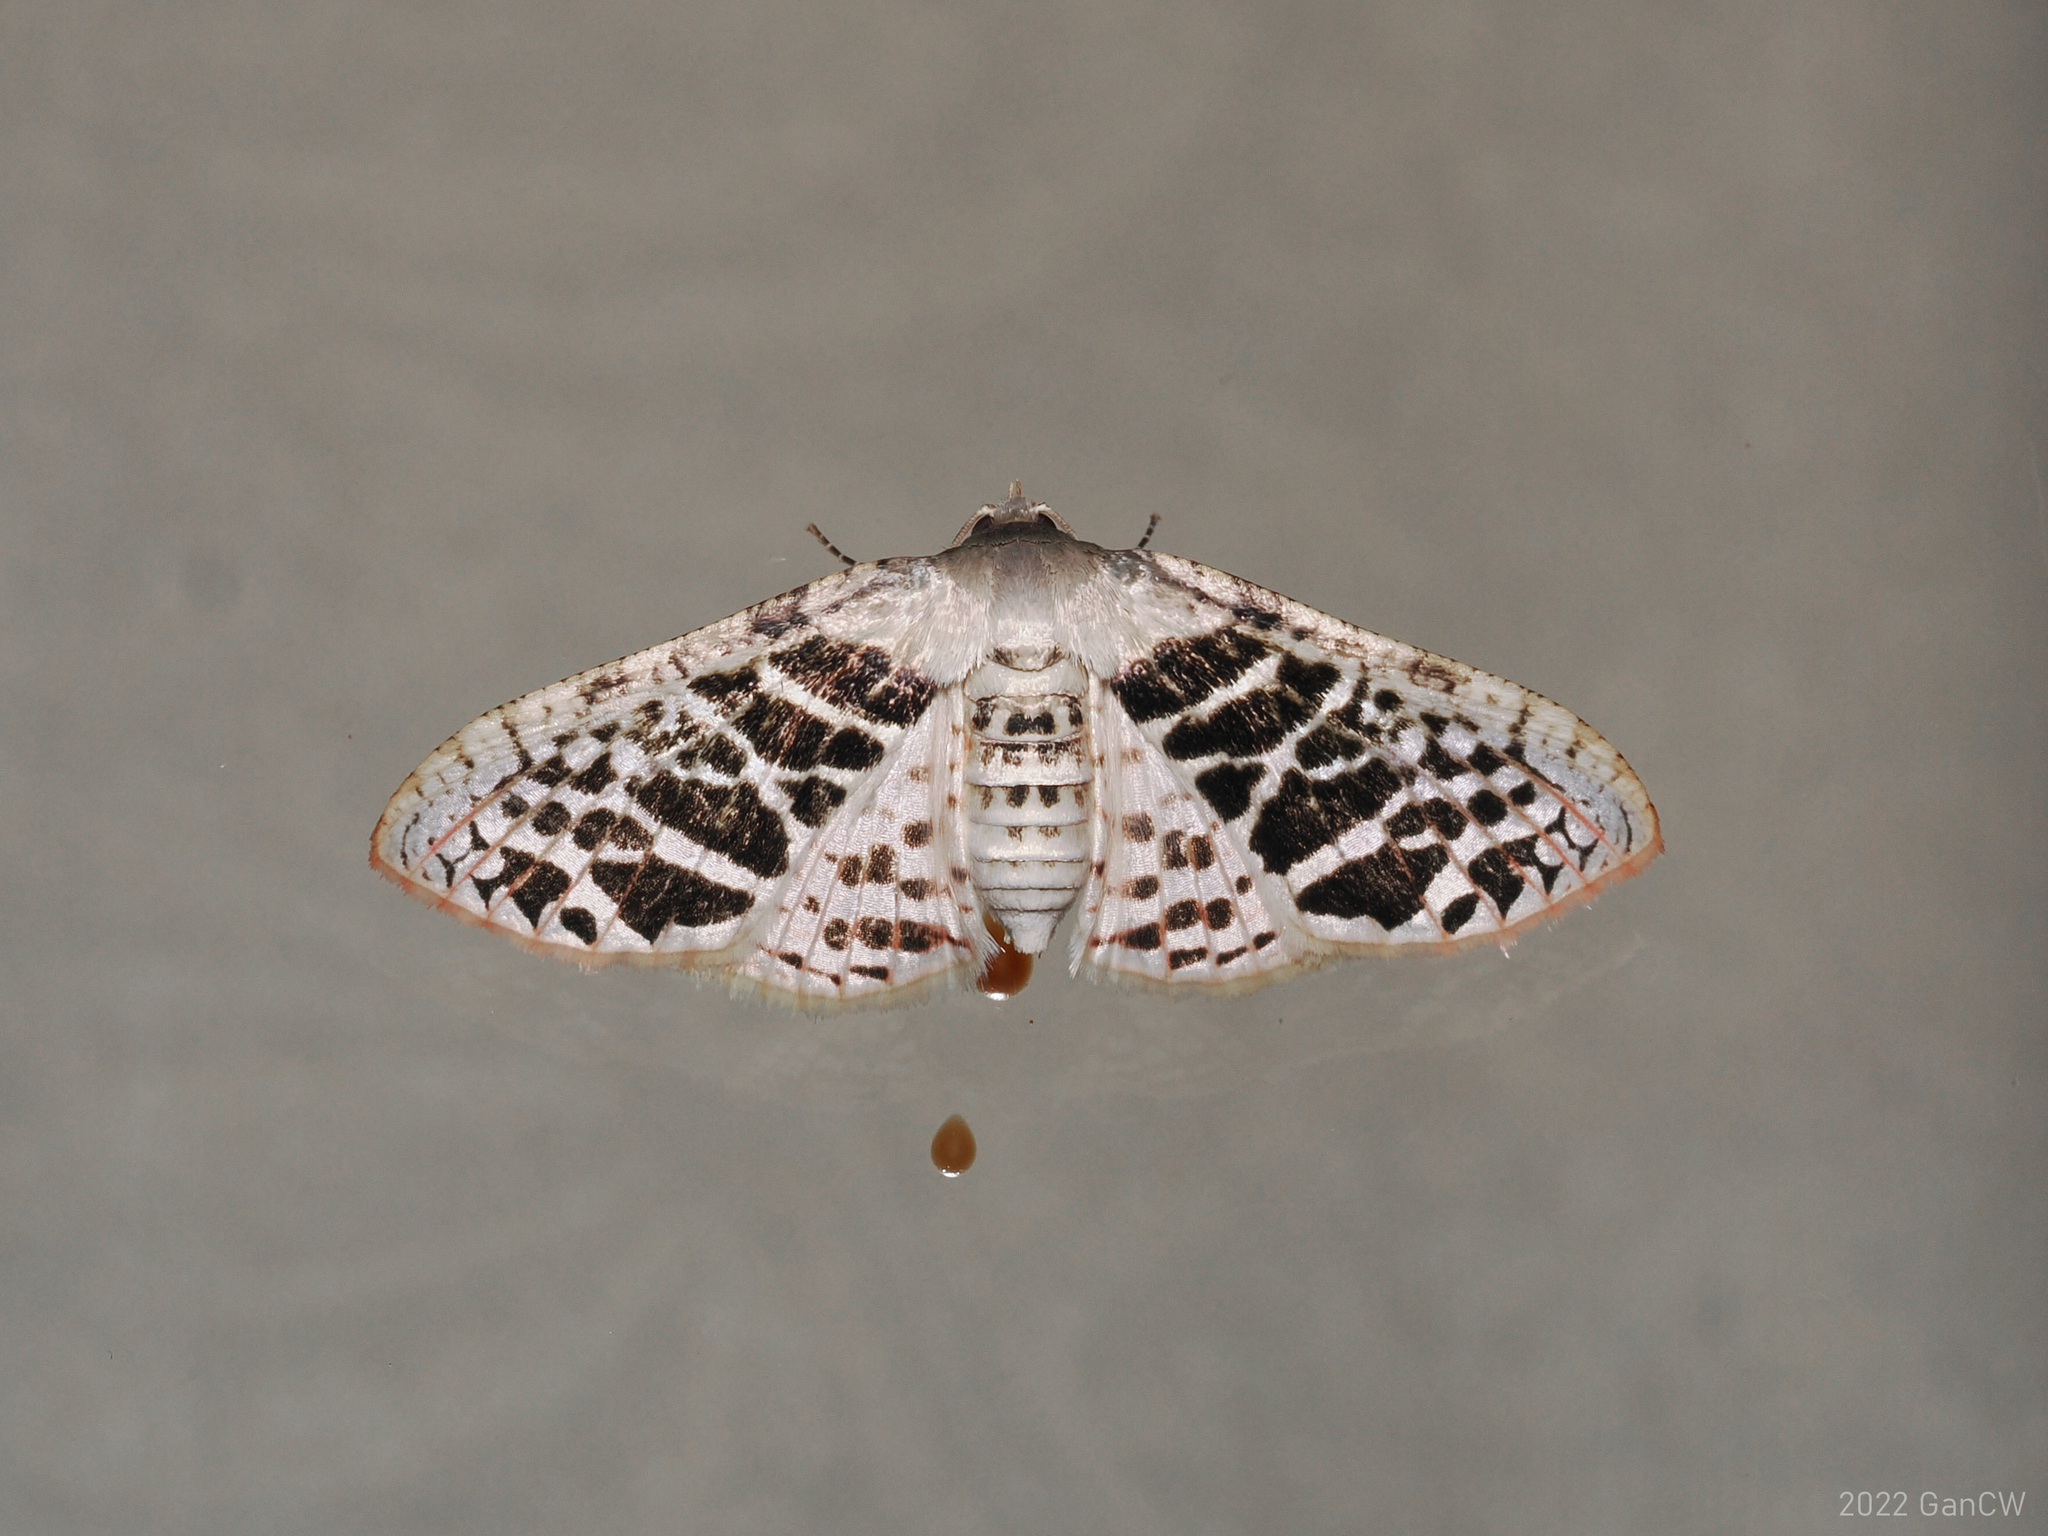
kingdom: Animalia
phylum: Arthropoda
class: Insecta
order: Lepidoptera
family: Thyrididae
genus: Rhodoneura
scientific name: Rhodoneura pudicula
